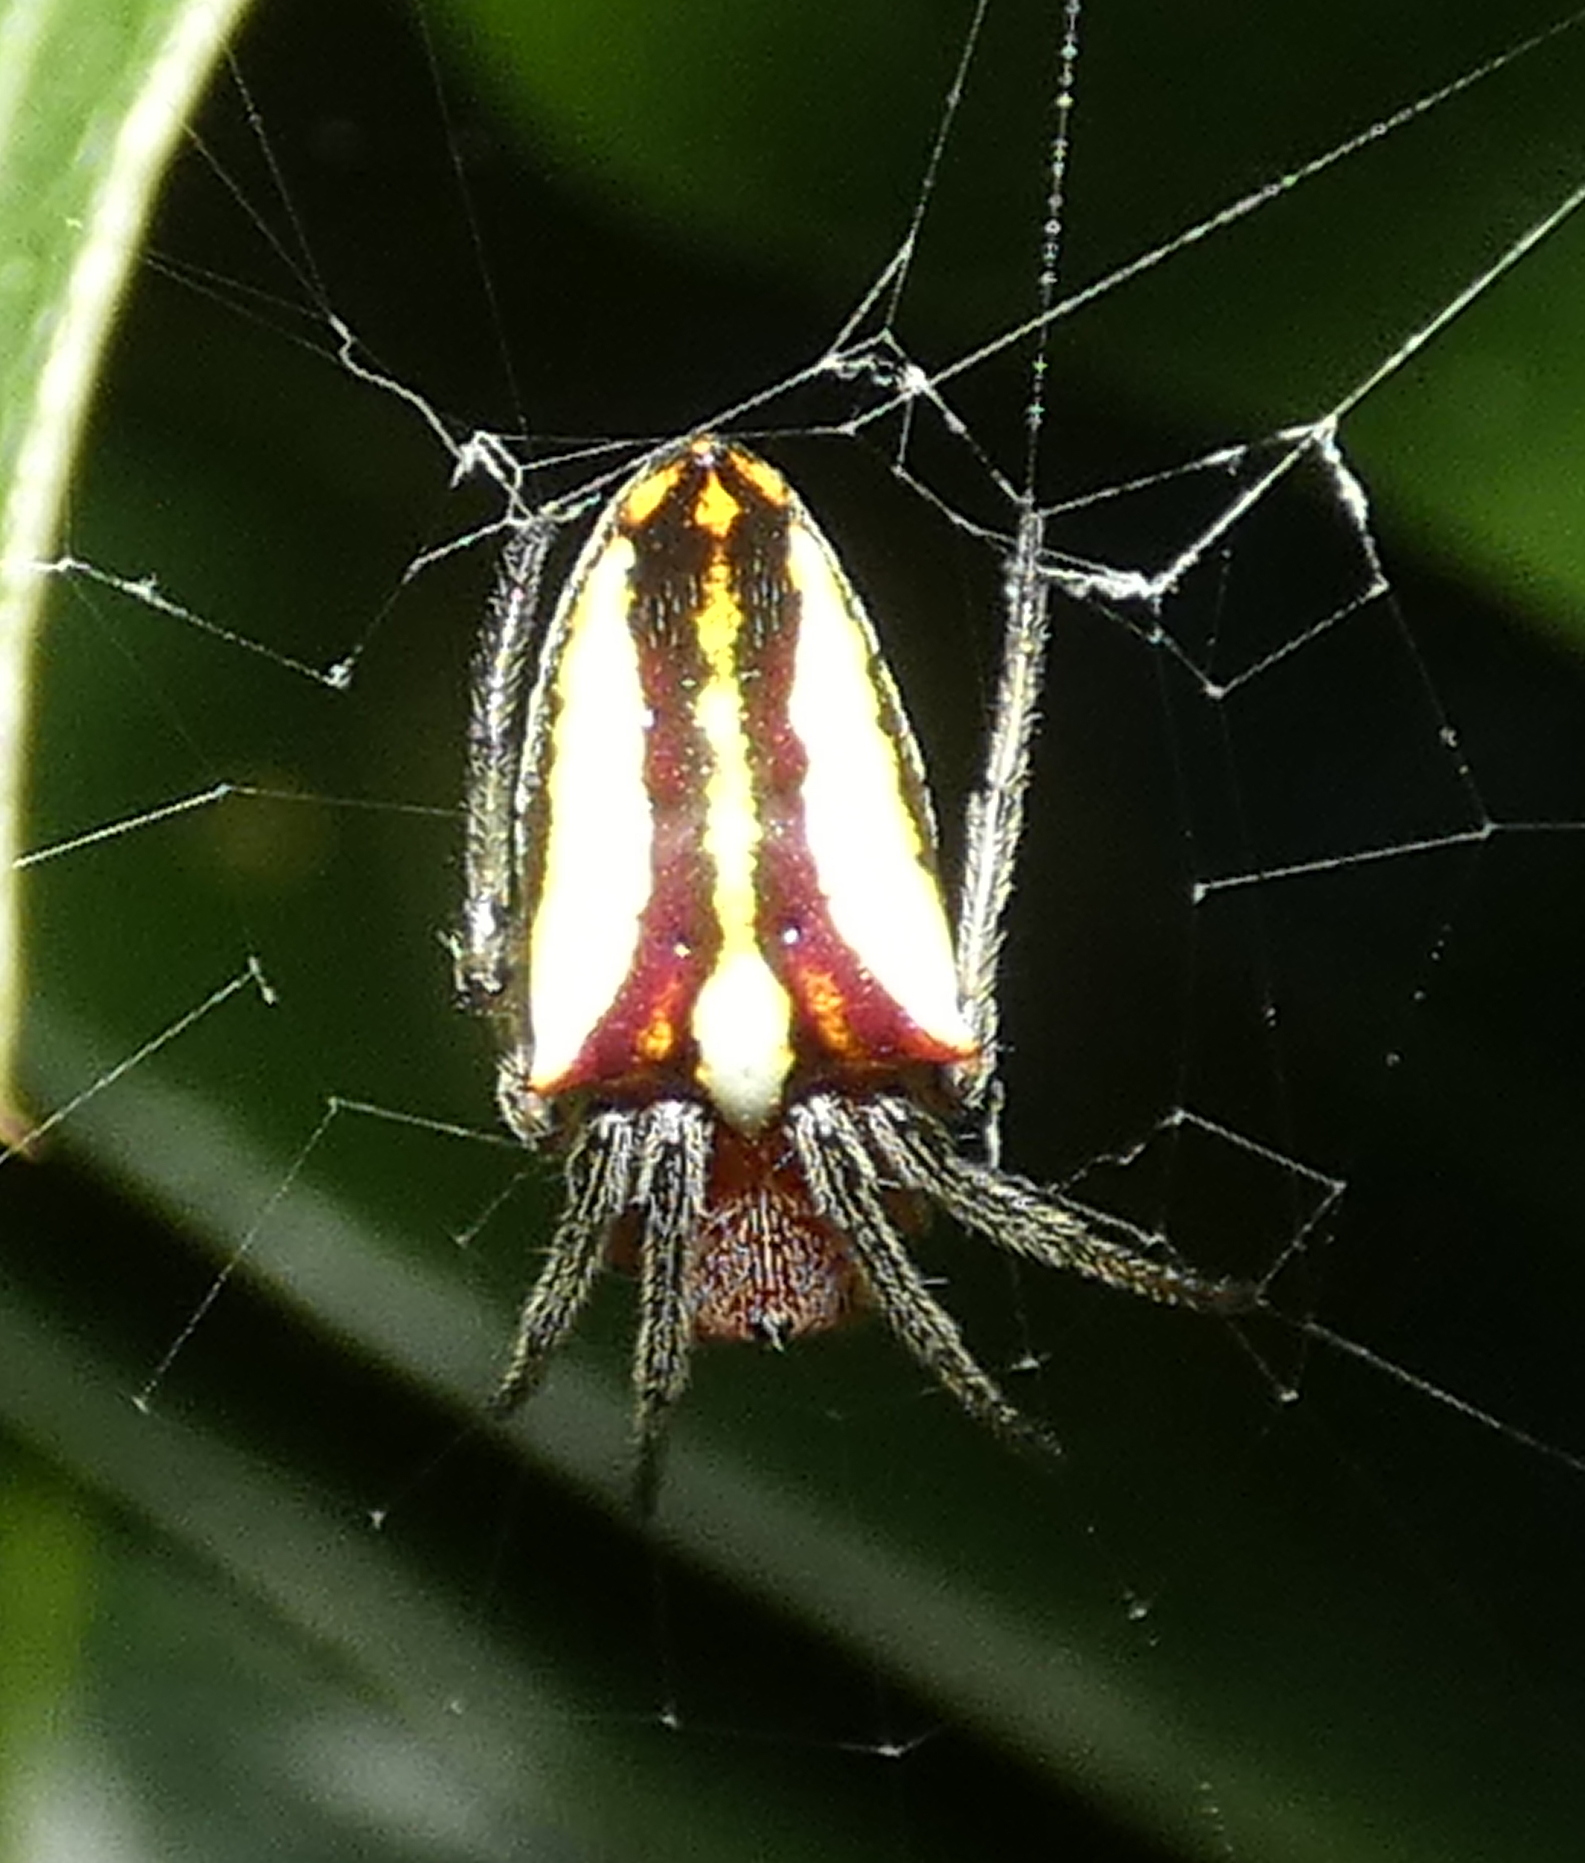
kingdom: Animalia
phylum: Arthropoda
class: Arachnida
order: Araneae
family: Araneidae
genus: Alpaida
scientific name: Alpaida bicornuta
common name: Orb weavers
